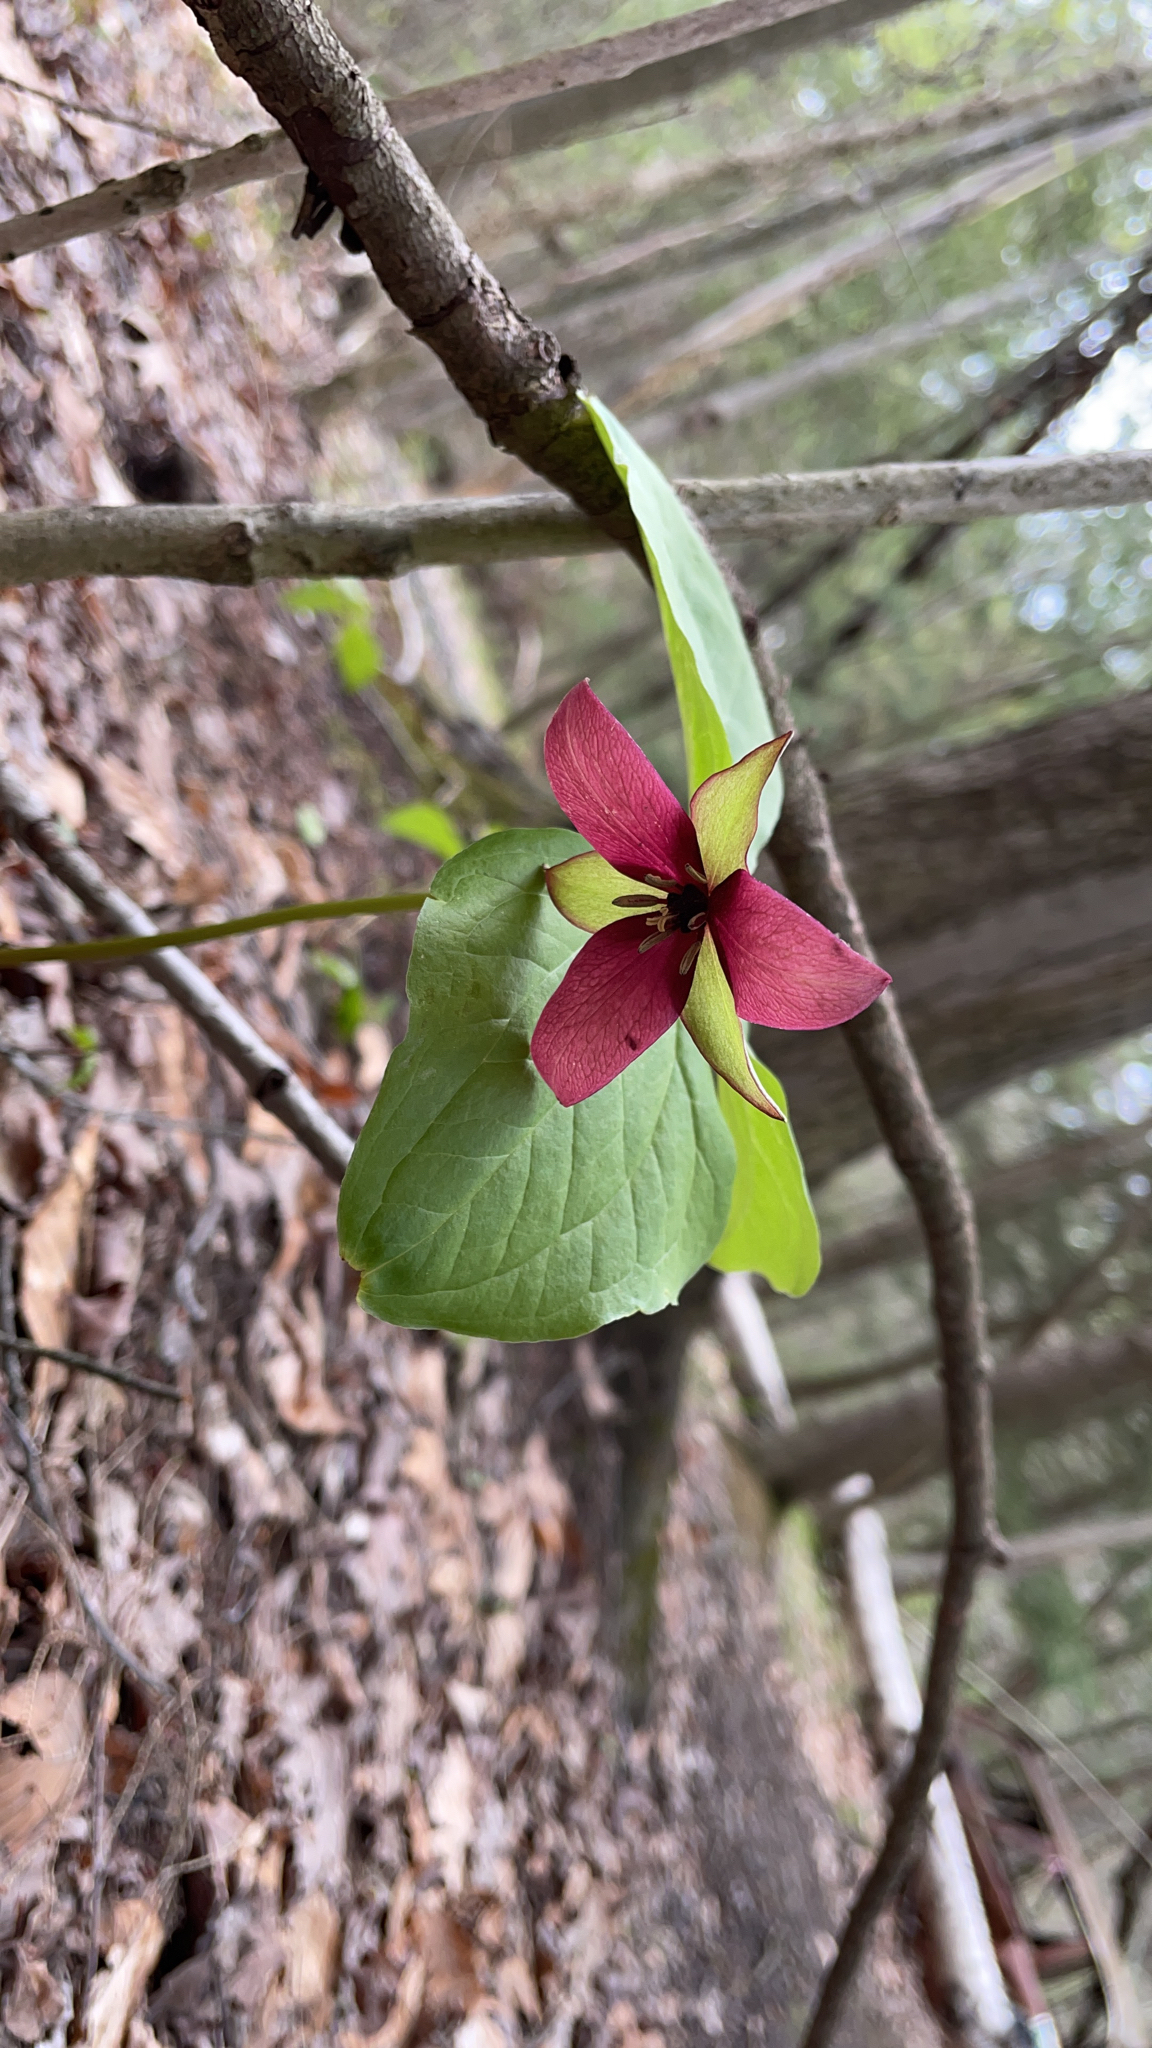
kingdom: Plantae
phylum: Tracheophyta
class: Liliopsida
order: Liliales
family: Melanthiaceae
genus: Trillium
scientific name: Trillium erectum
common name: Purple trillium
